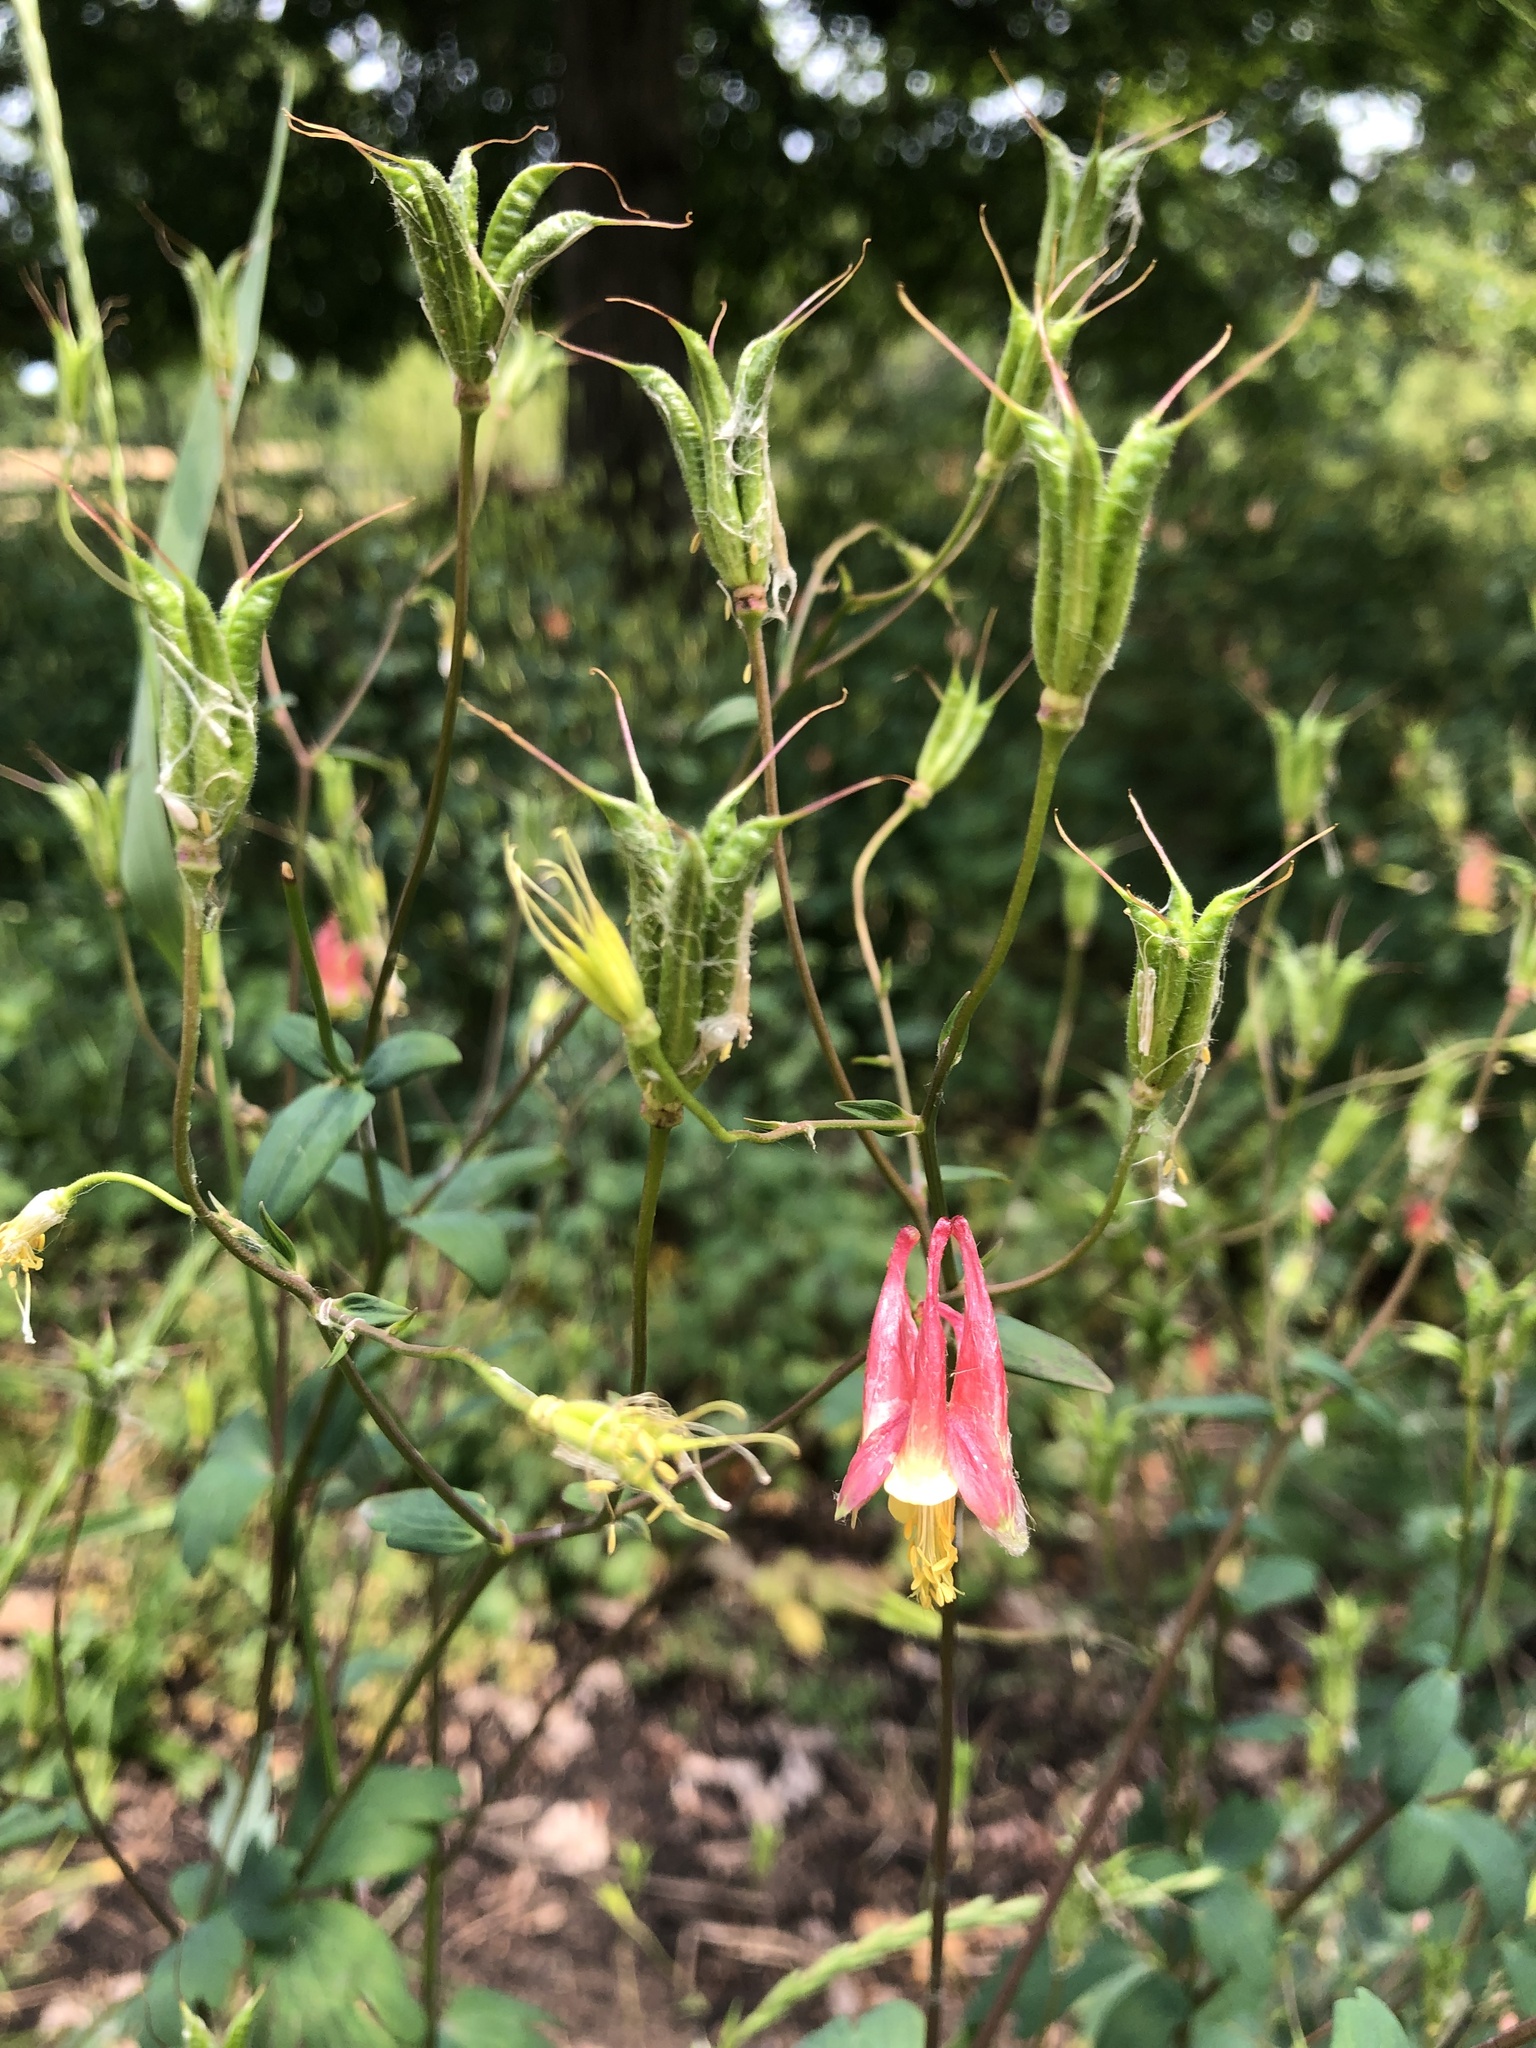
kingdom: Plantae
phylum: Tracheophyta
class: Magnoliopsida
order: Ranunculales
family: Ranunculaceae
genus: Aquilegia
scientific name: Aquilegia canadensis
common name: American columbine
